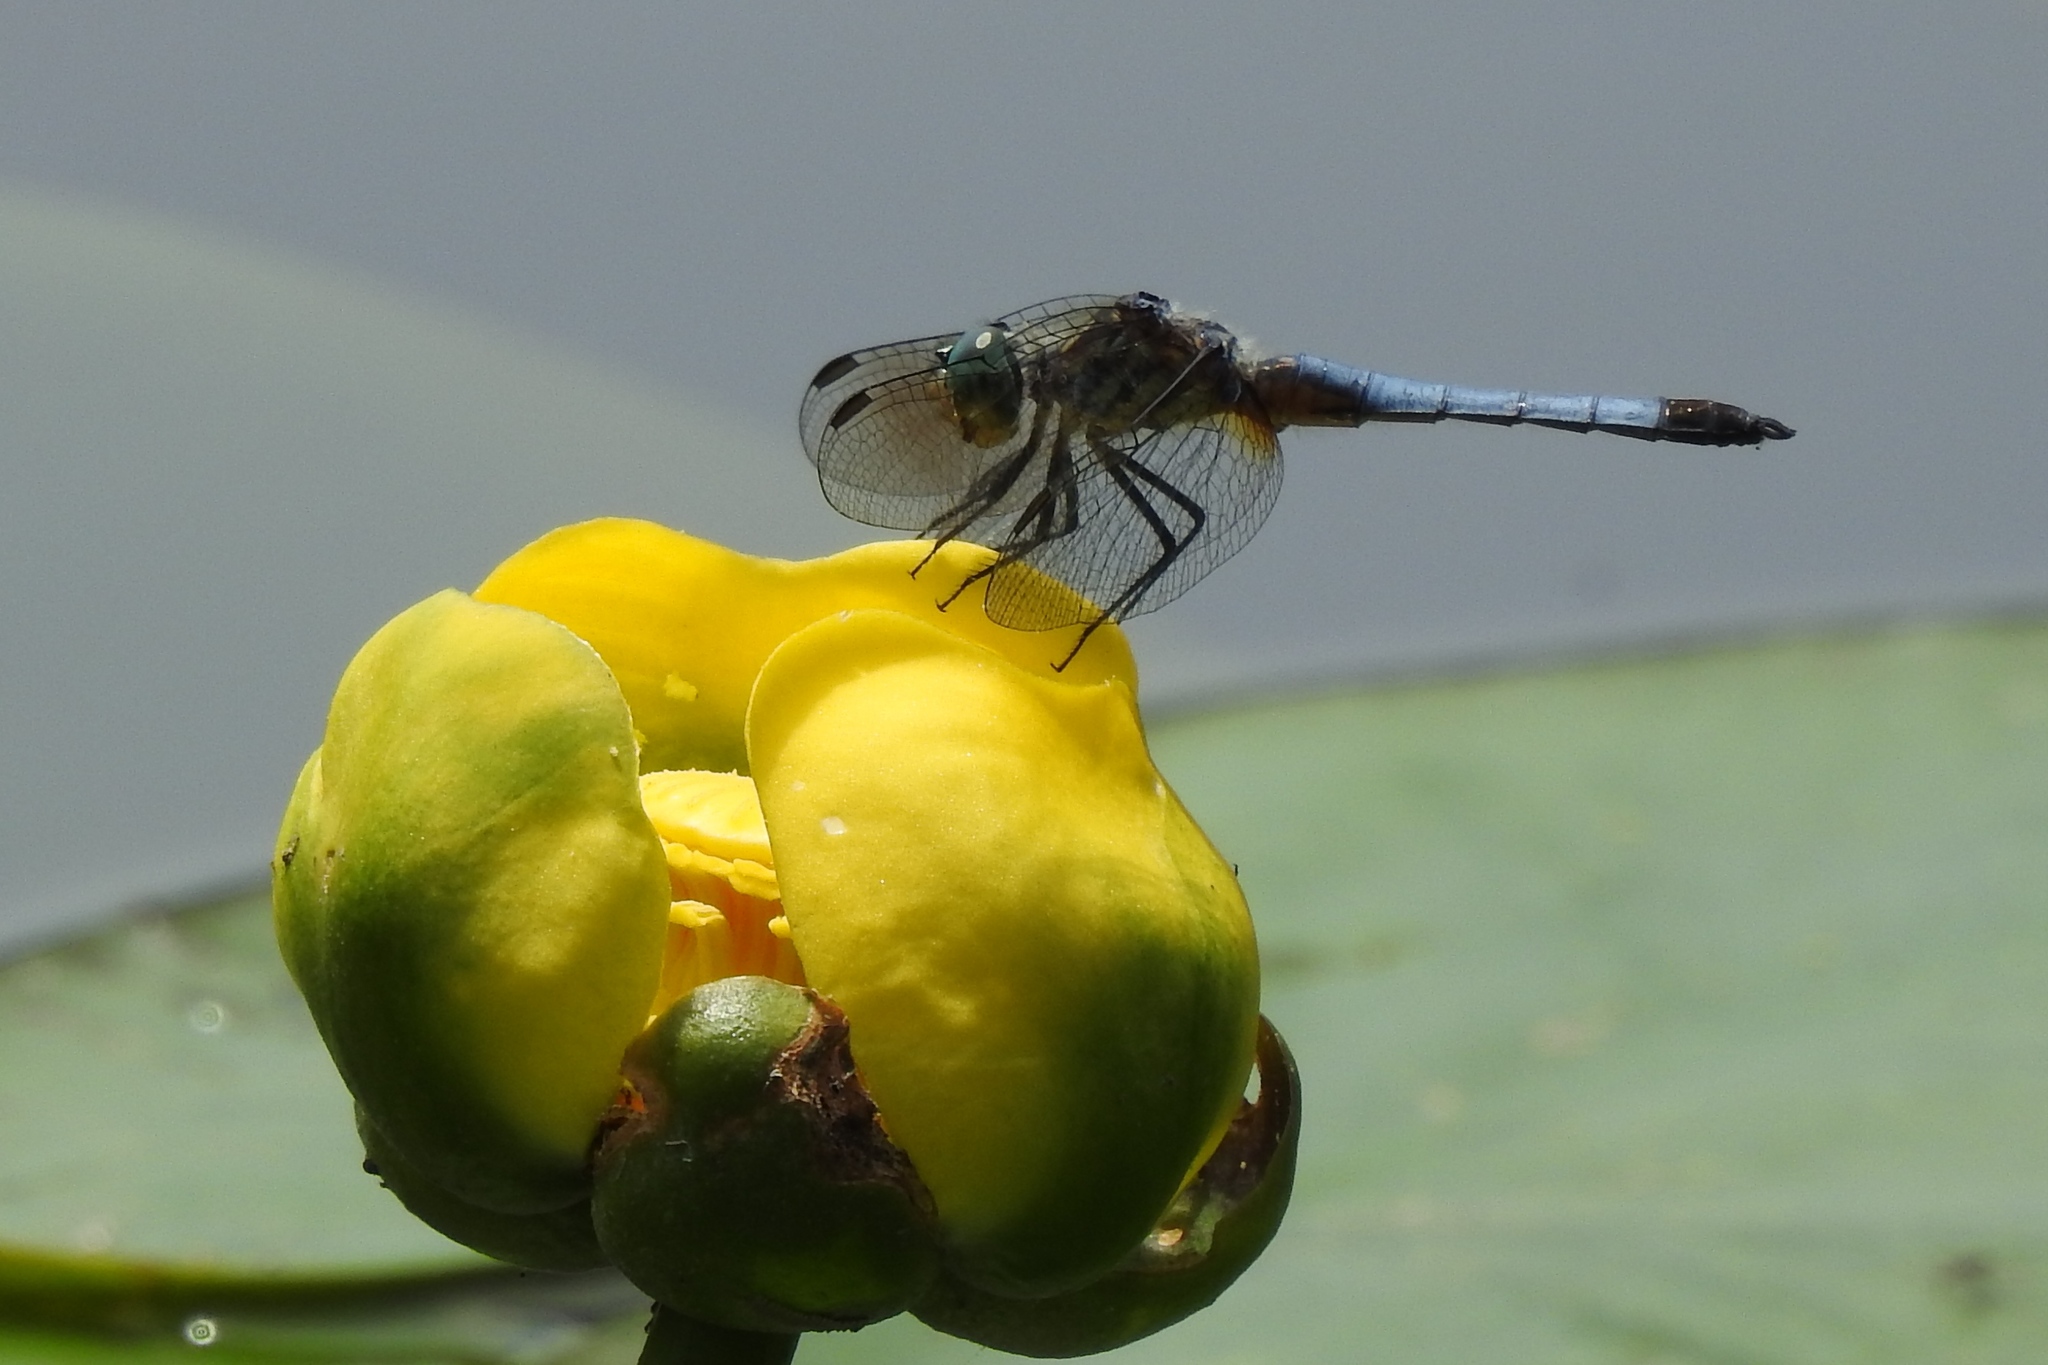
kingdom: Animalia
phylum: Arthropoda
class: Insecta
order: Odonata
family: Libellulidae
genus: Pachydiplax
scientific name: Pachydiplax longipennis
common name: Blue dasher
